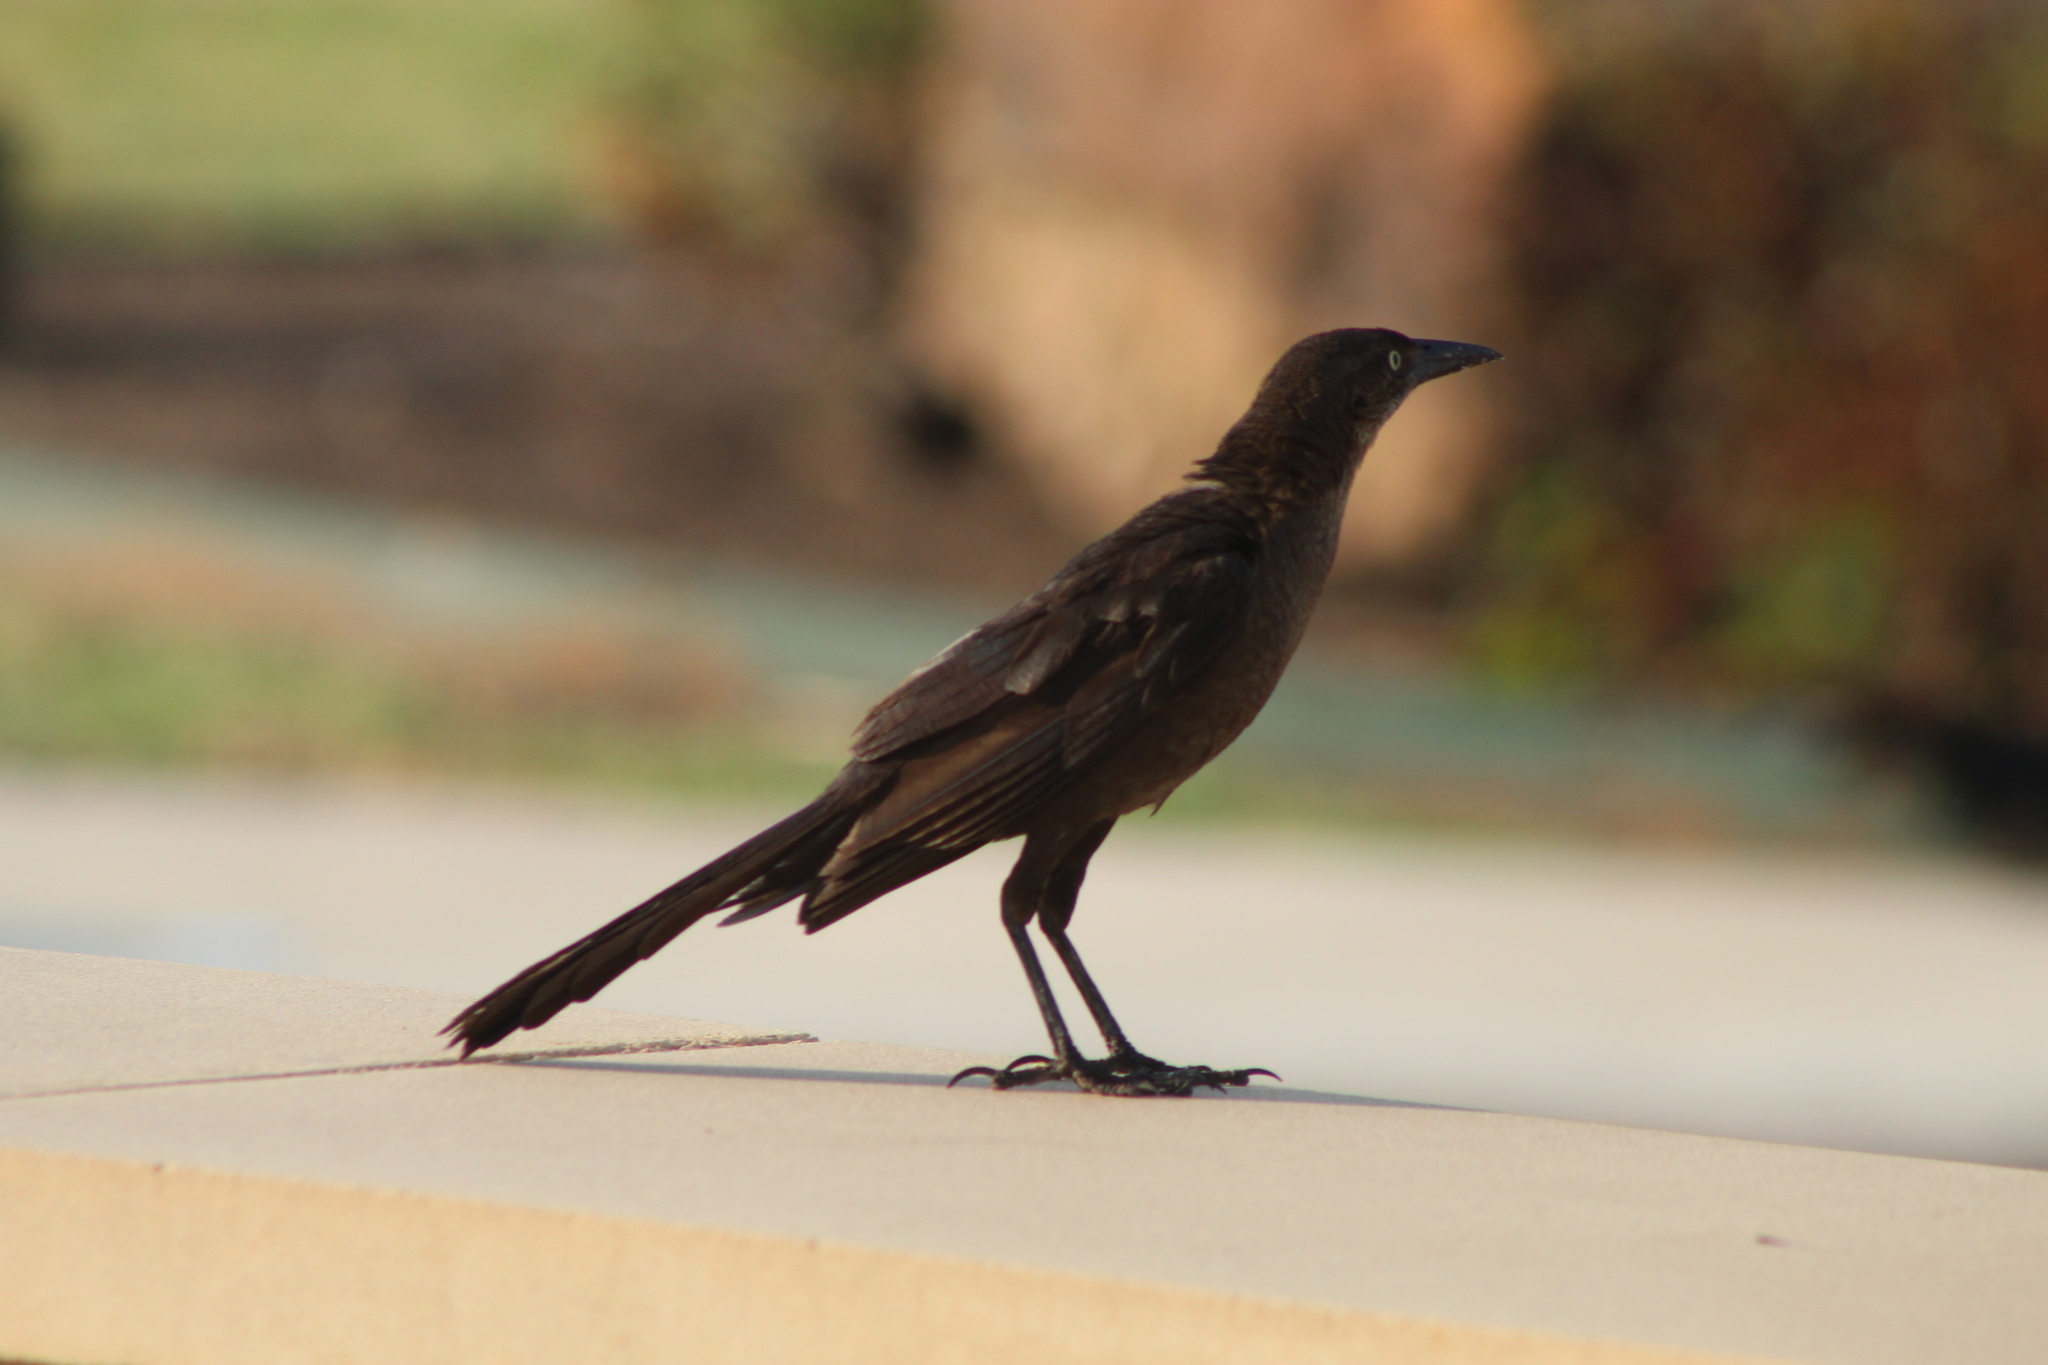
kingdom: Animalia
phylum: Chordata
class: Aves
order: Passeriformes
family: Icteridae
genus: Quiscalus
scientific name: Quiscalus mexicanus
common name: Great-tailed grackle
